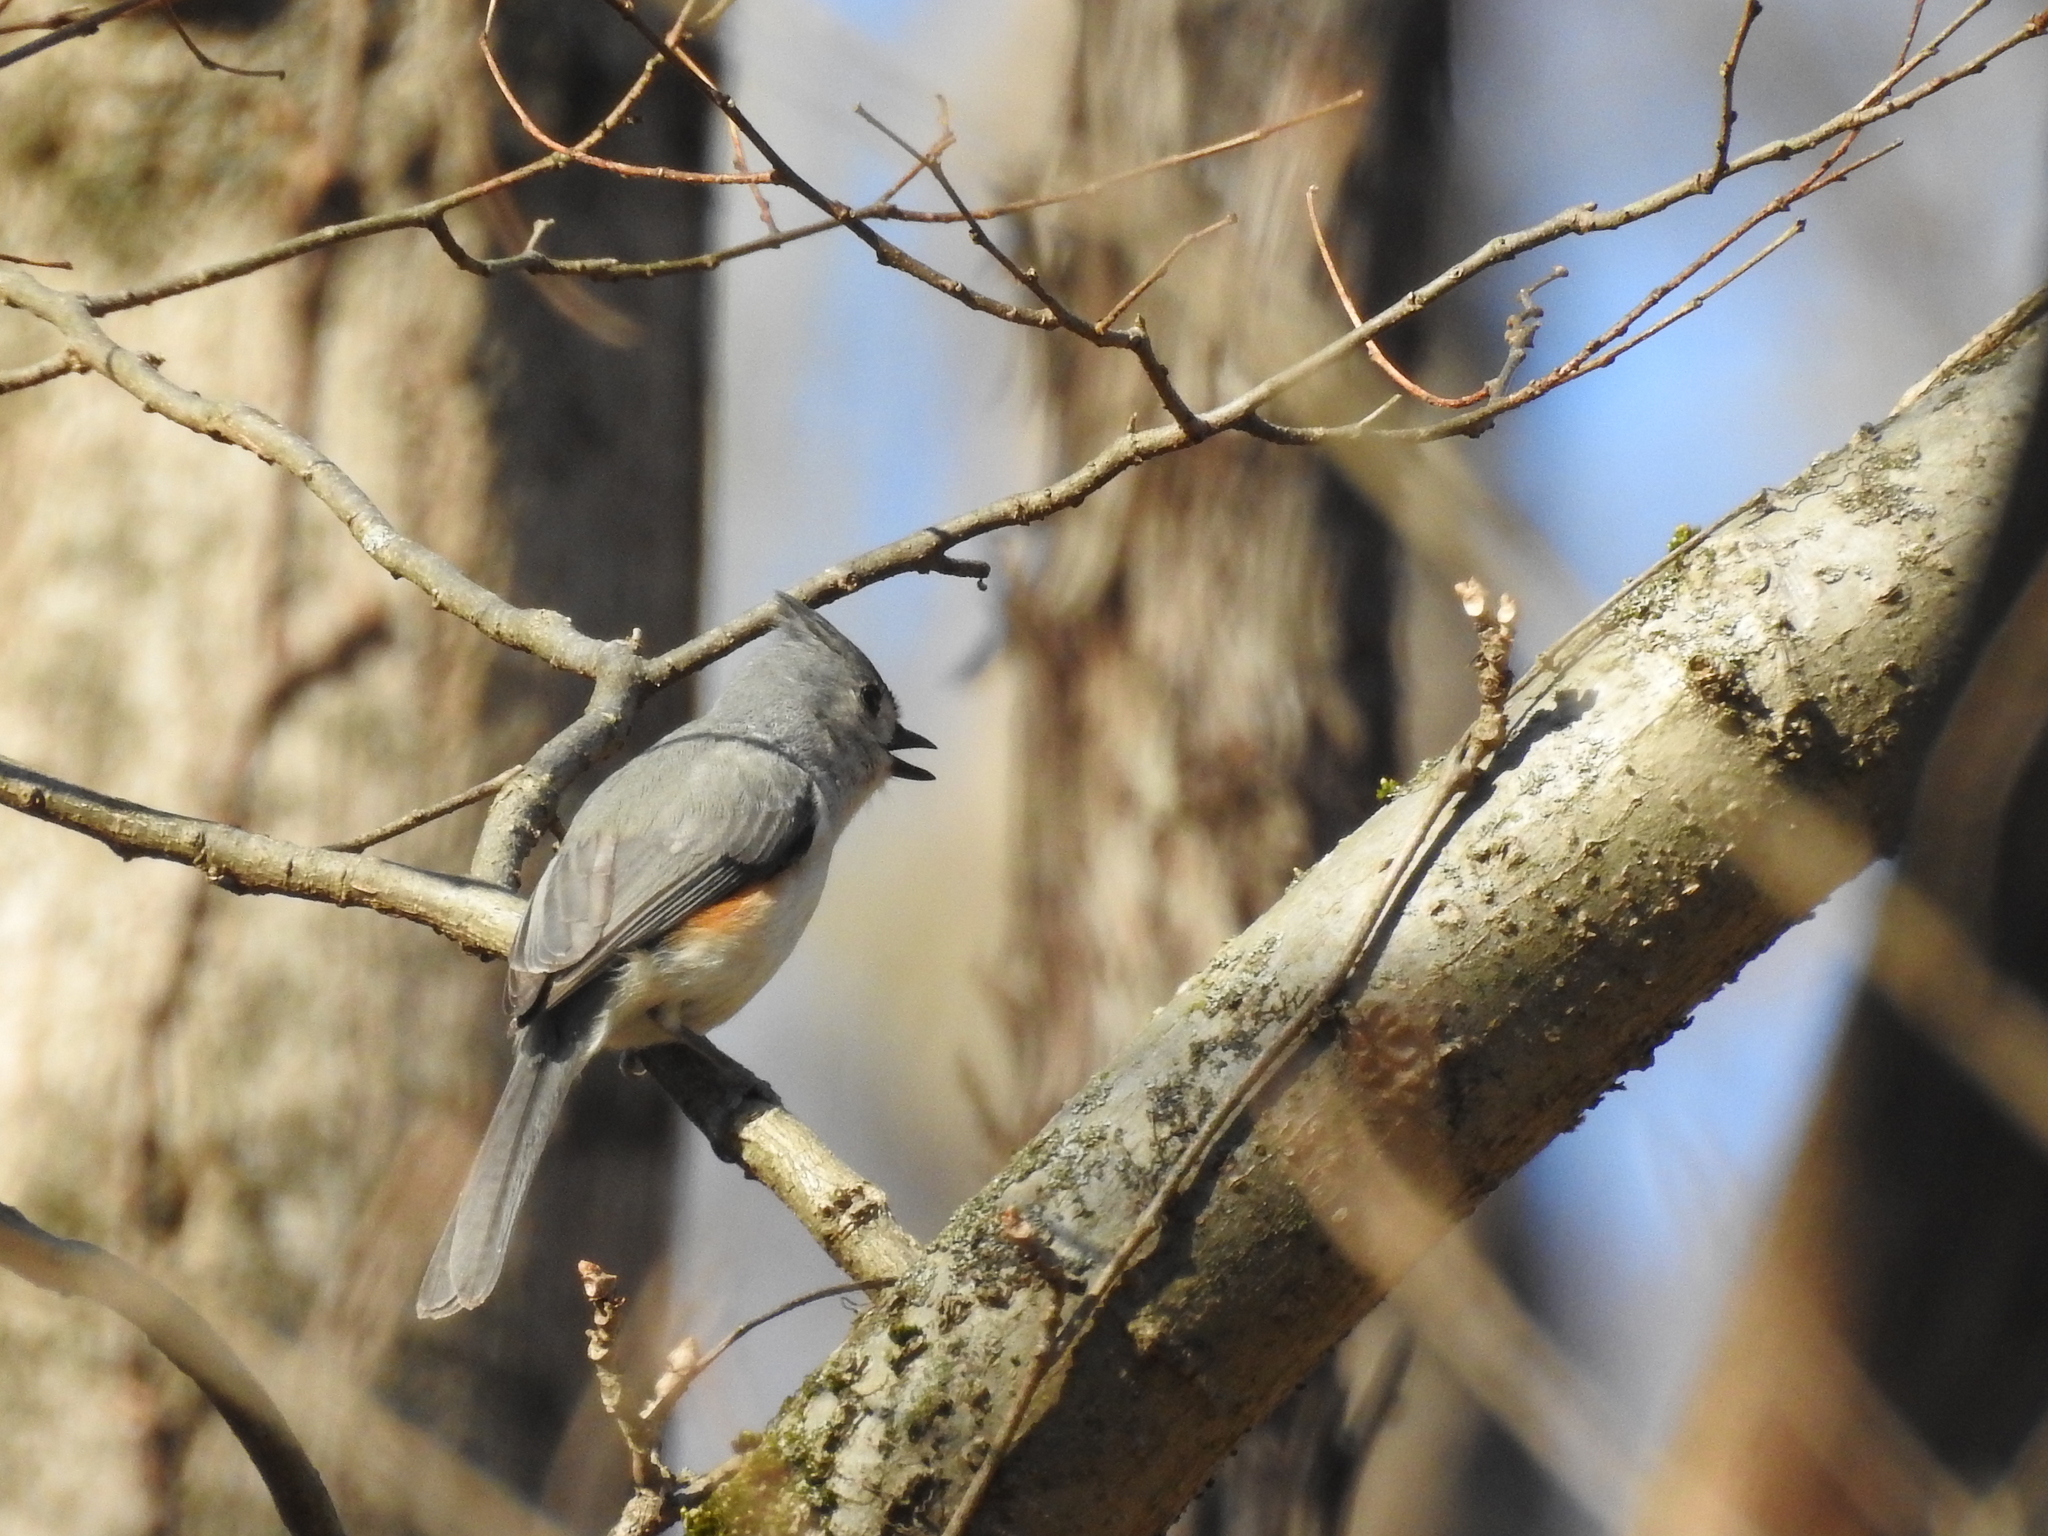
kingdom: Animalia
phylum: Chordata
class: Aves
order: Passeriformes
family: Paridae
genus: Baeolophus
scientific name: Baeolophus bicolor
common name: Tufted titmouse
